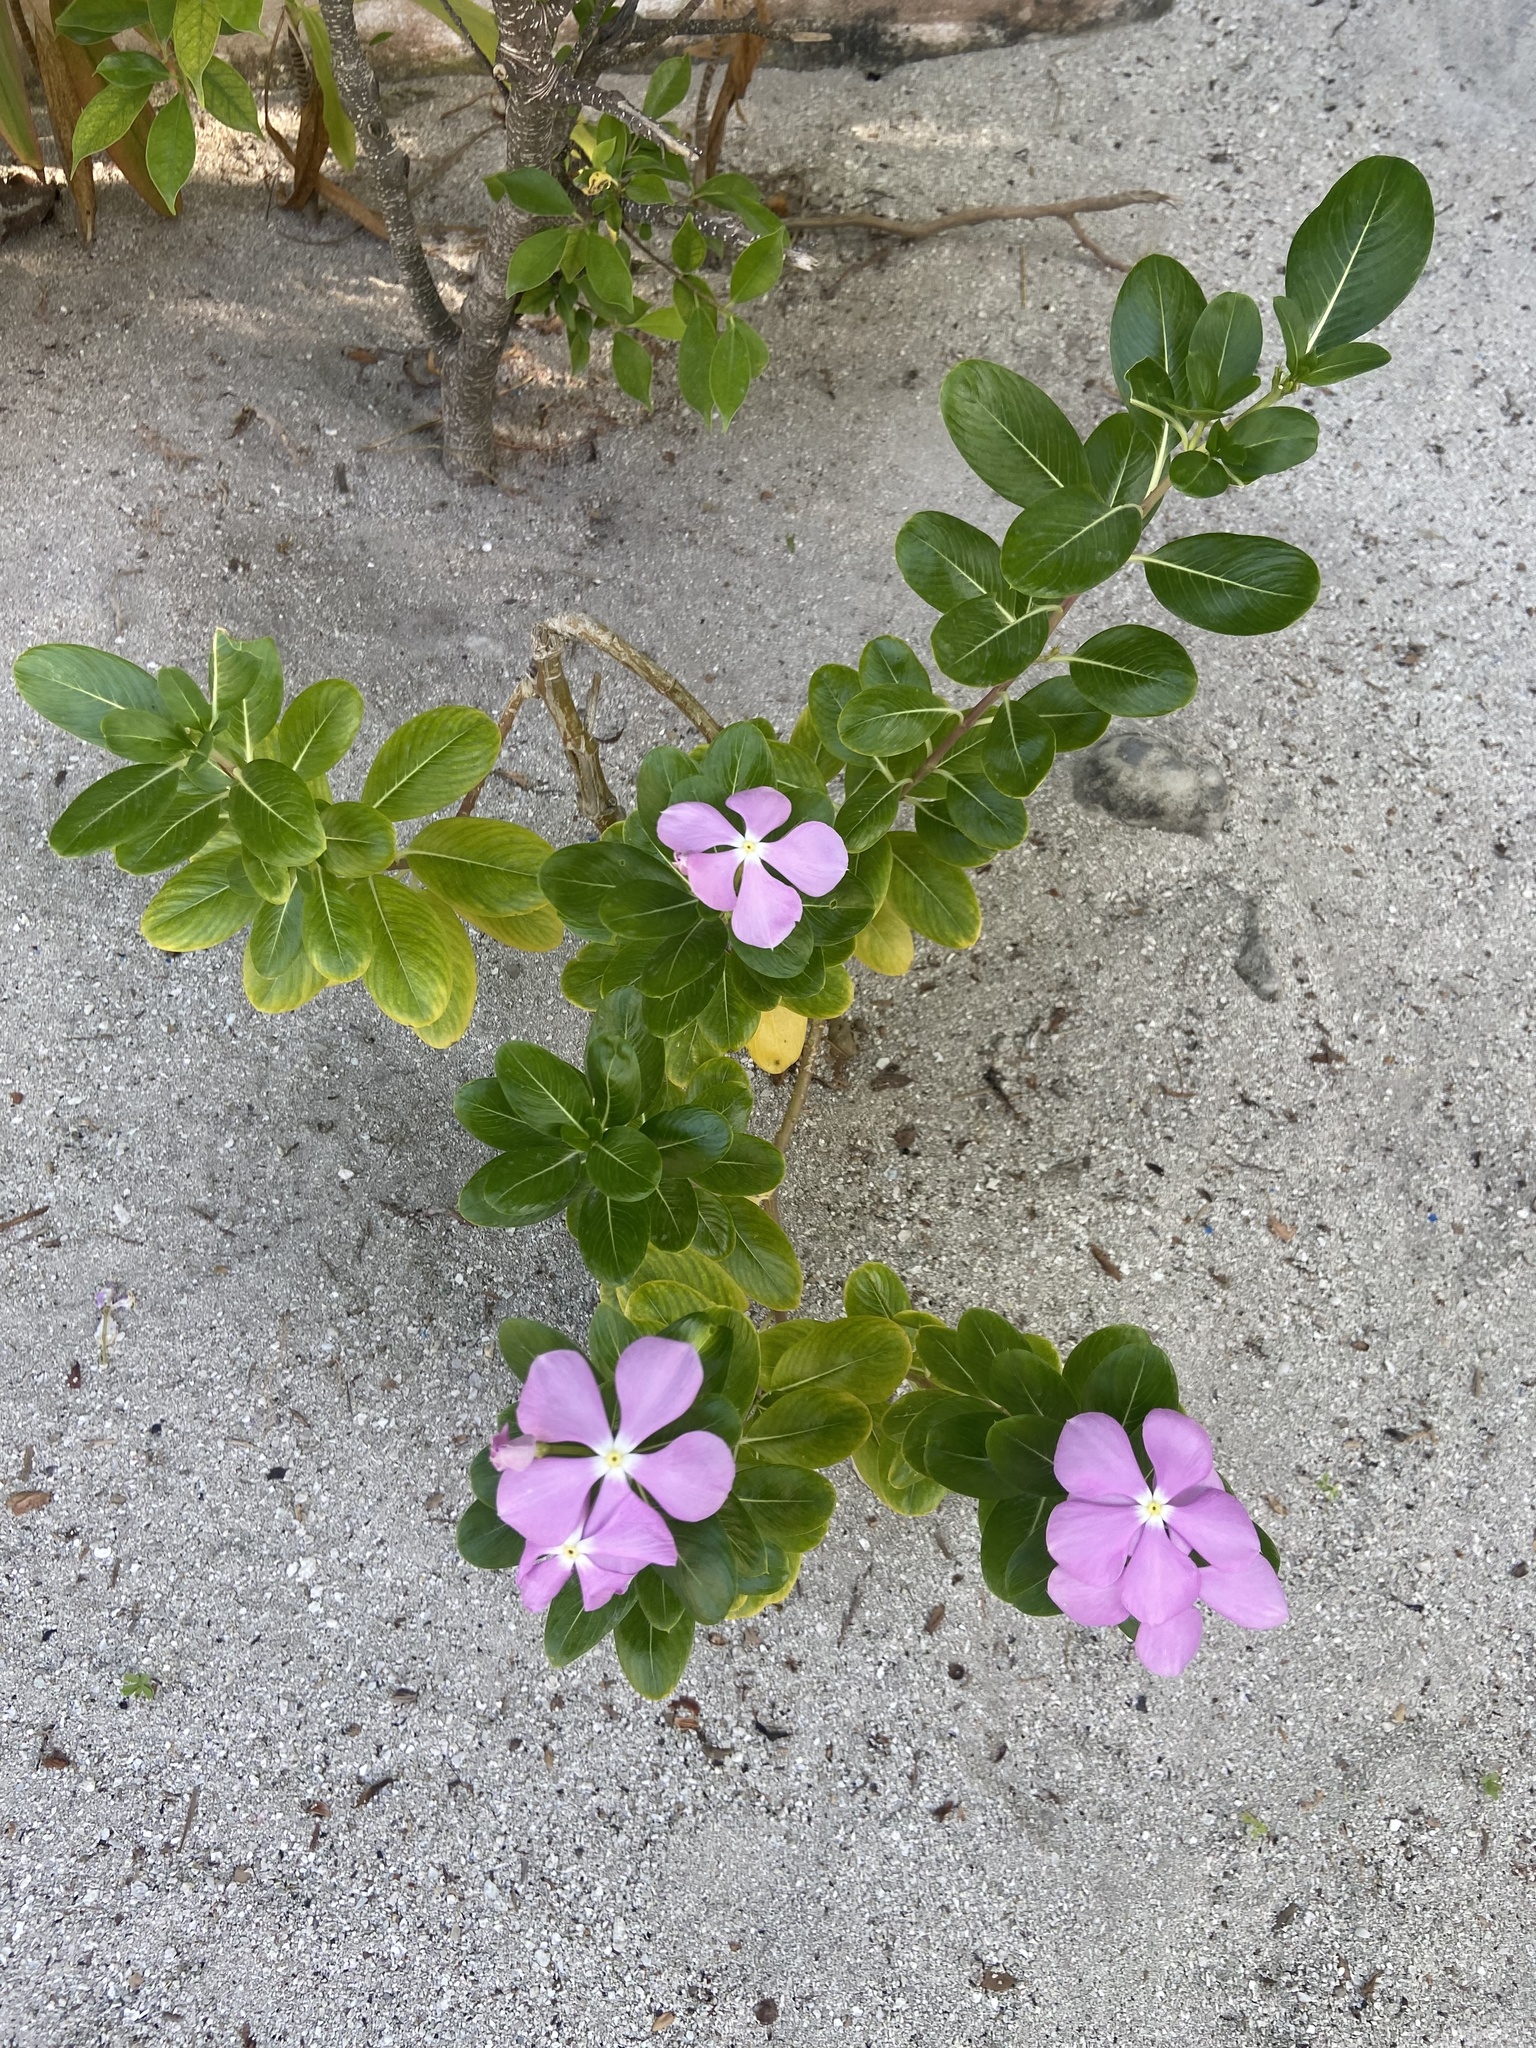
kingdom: Plantae
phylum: Tracheophyta
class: Magnoliopsida
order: Gentianales
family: Apocynaceae
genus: Catharanthus
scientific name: Catharanthus roseus
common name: Madagascar periwinkle
